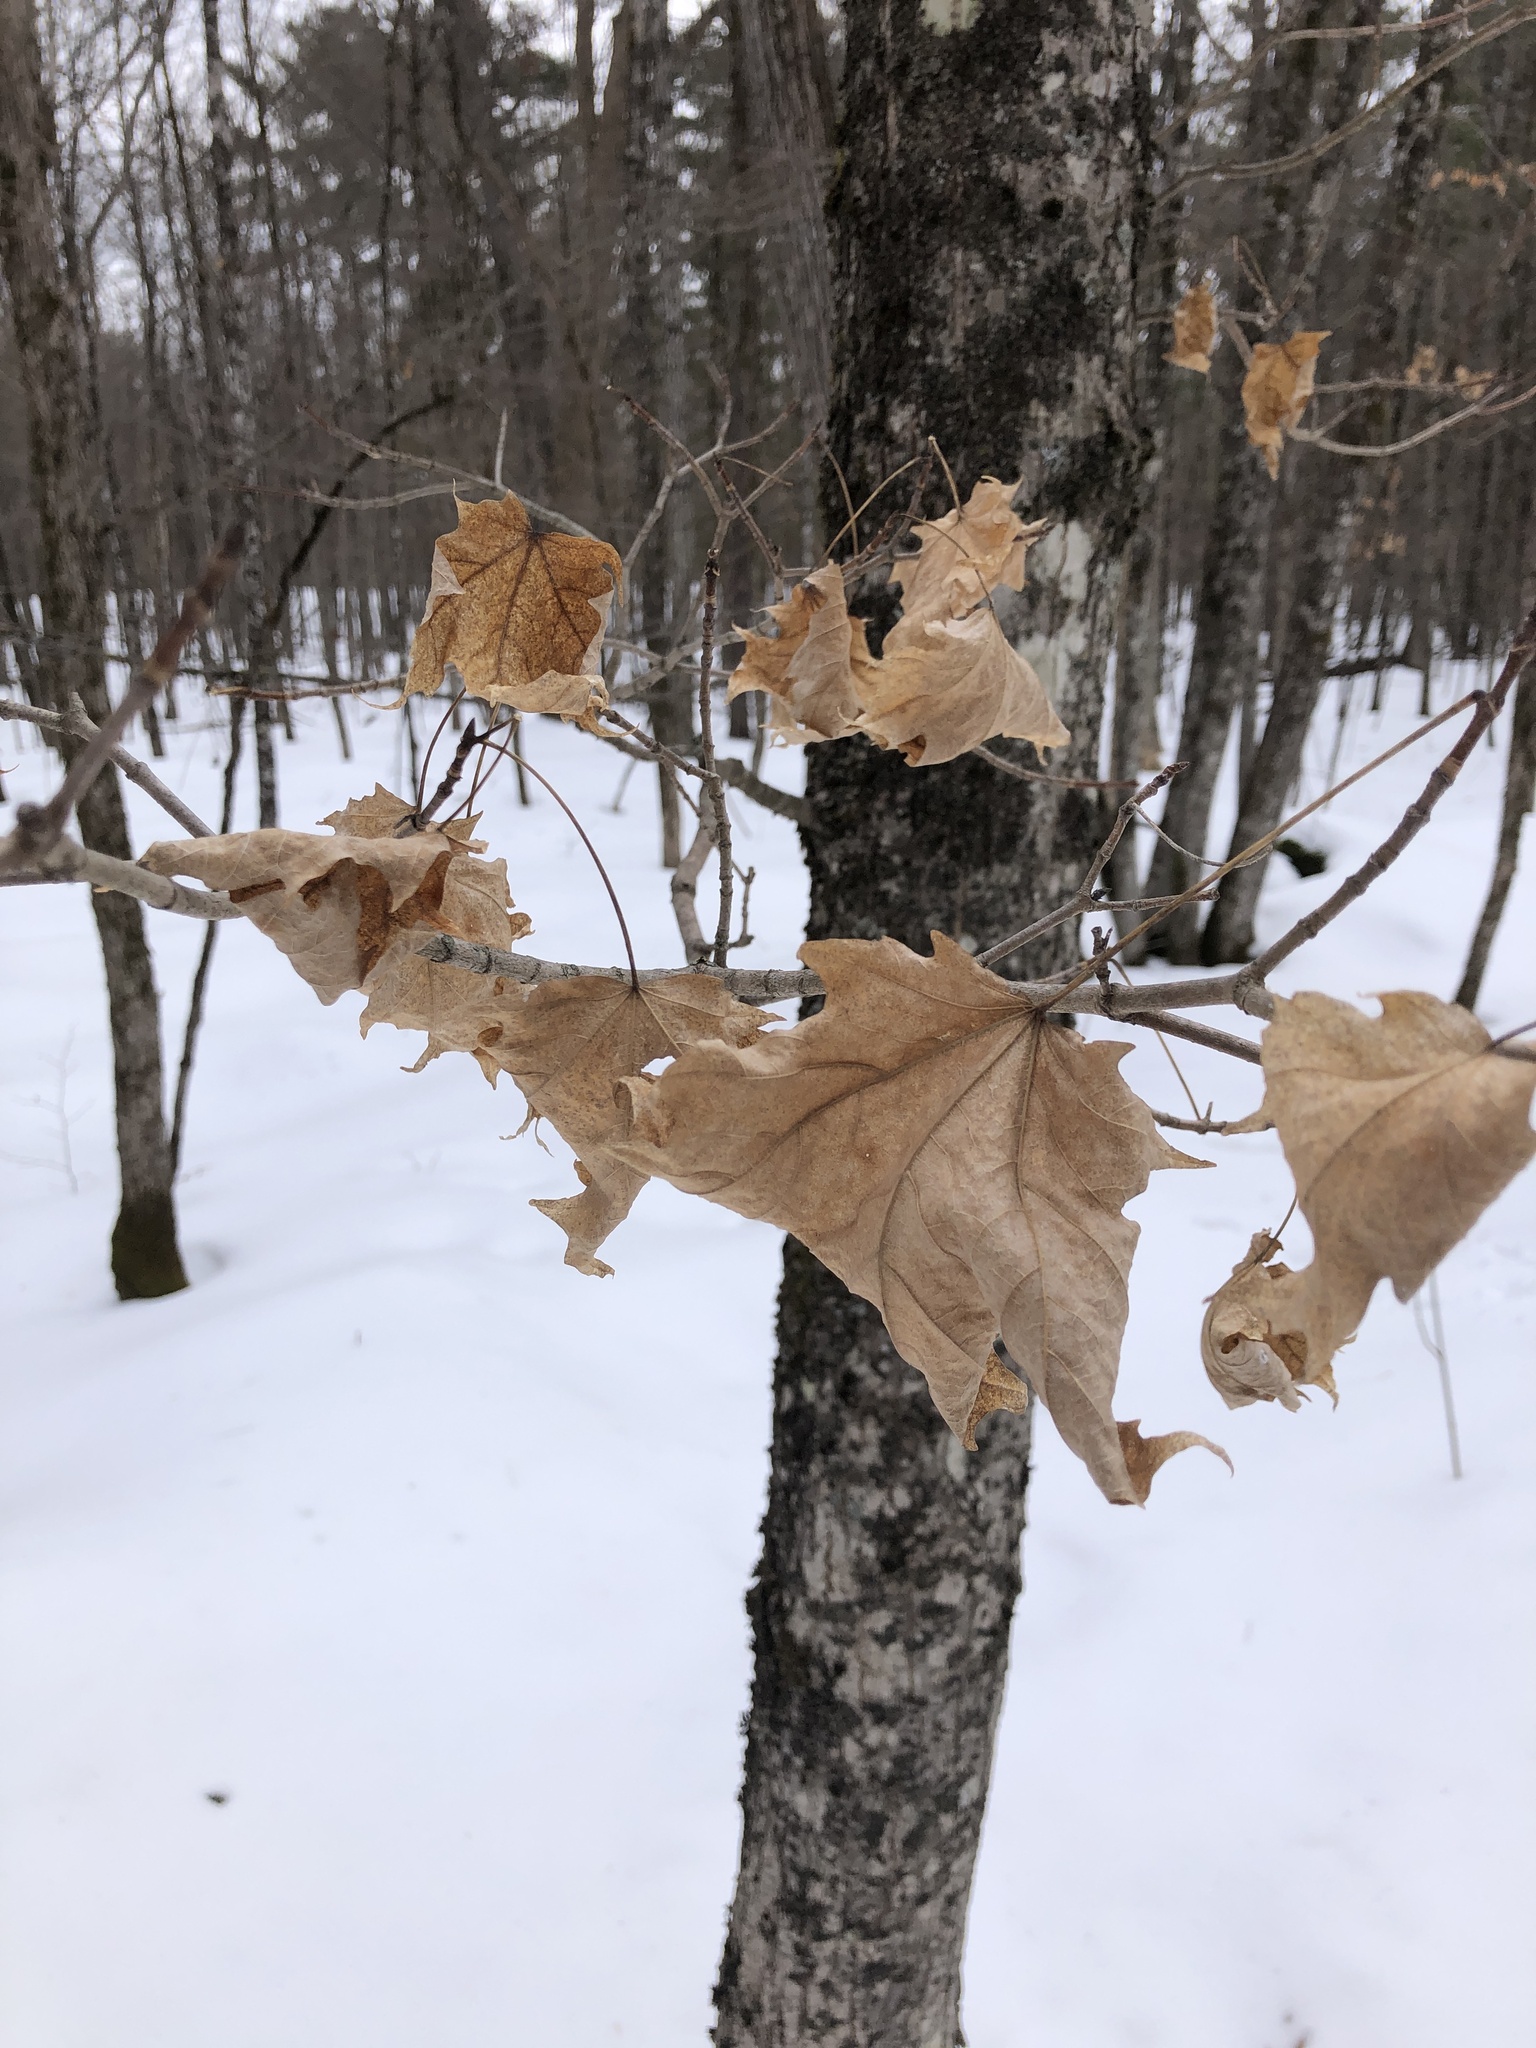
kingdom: Plantae
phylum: Tracheophyta
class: Magnoliopsida
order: Sapindales
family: Sapindaceae
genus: Acer
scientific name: Acer saccharum
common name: Sugar maple
